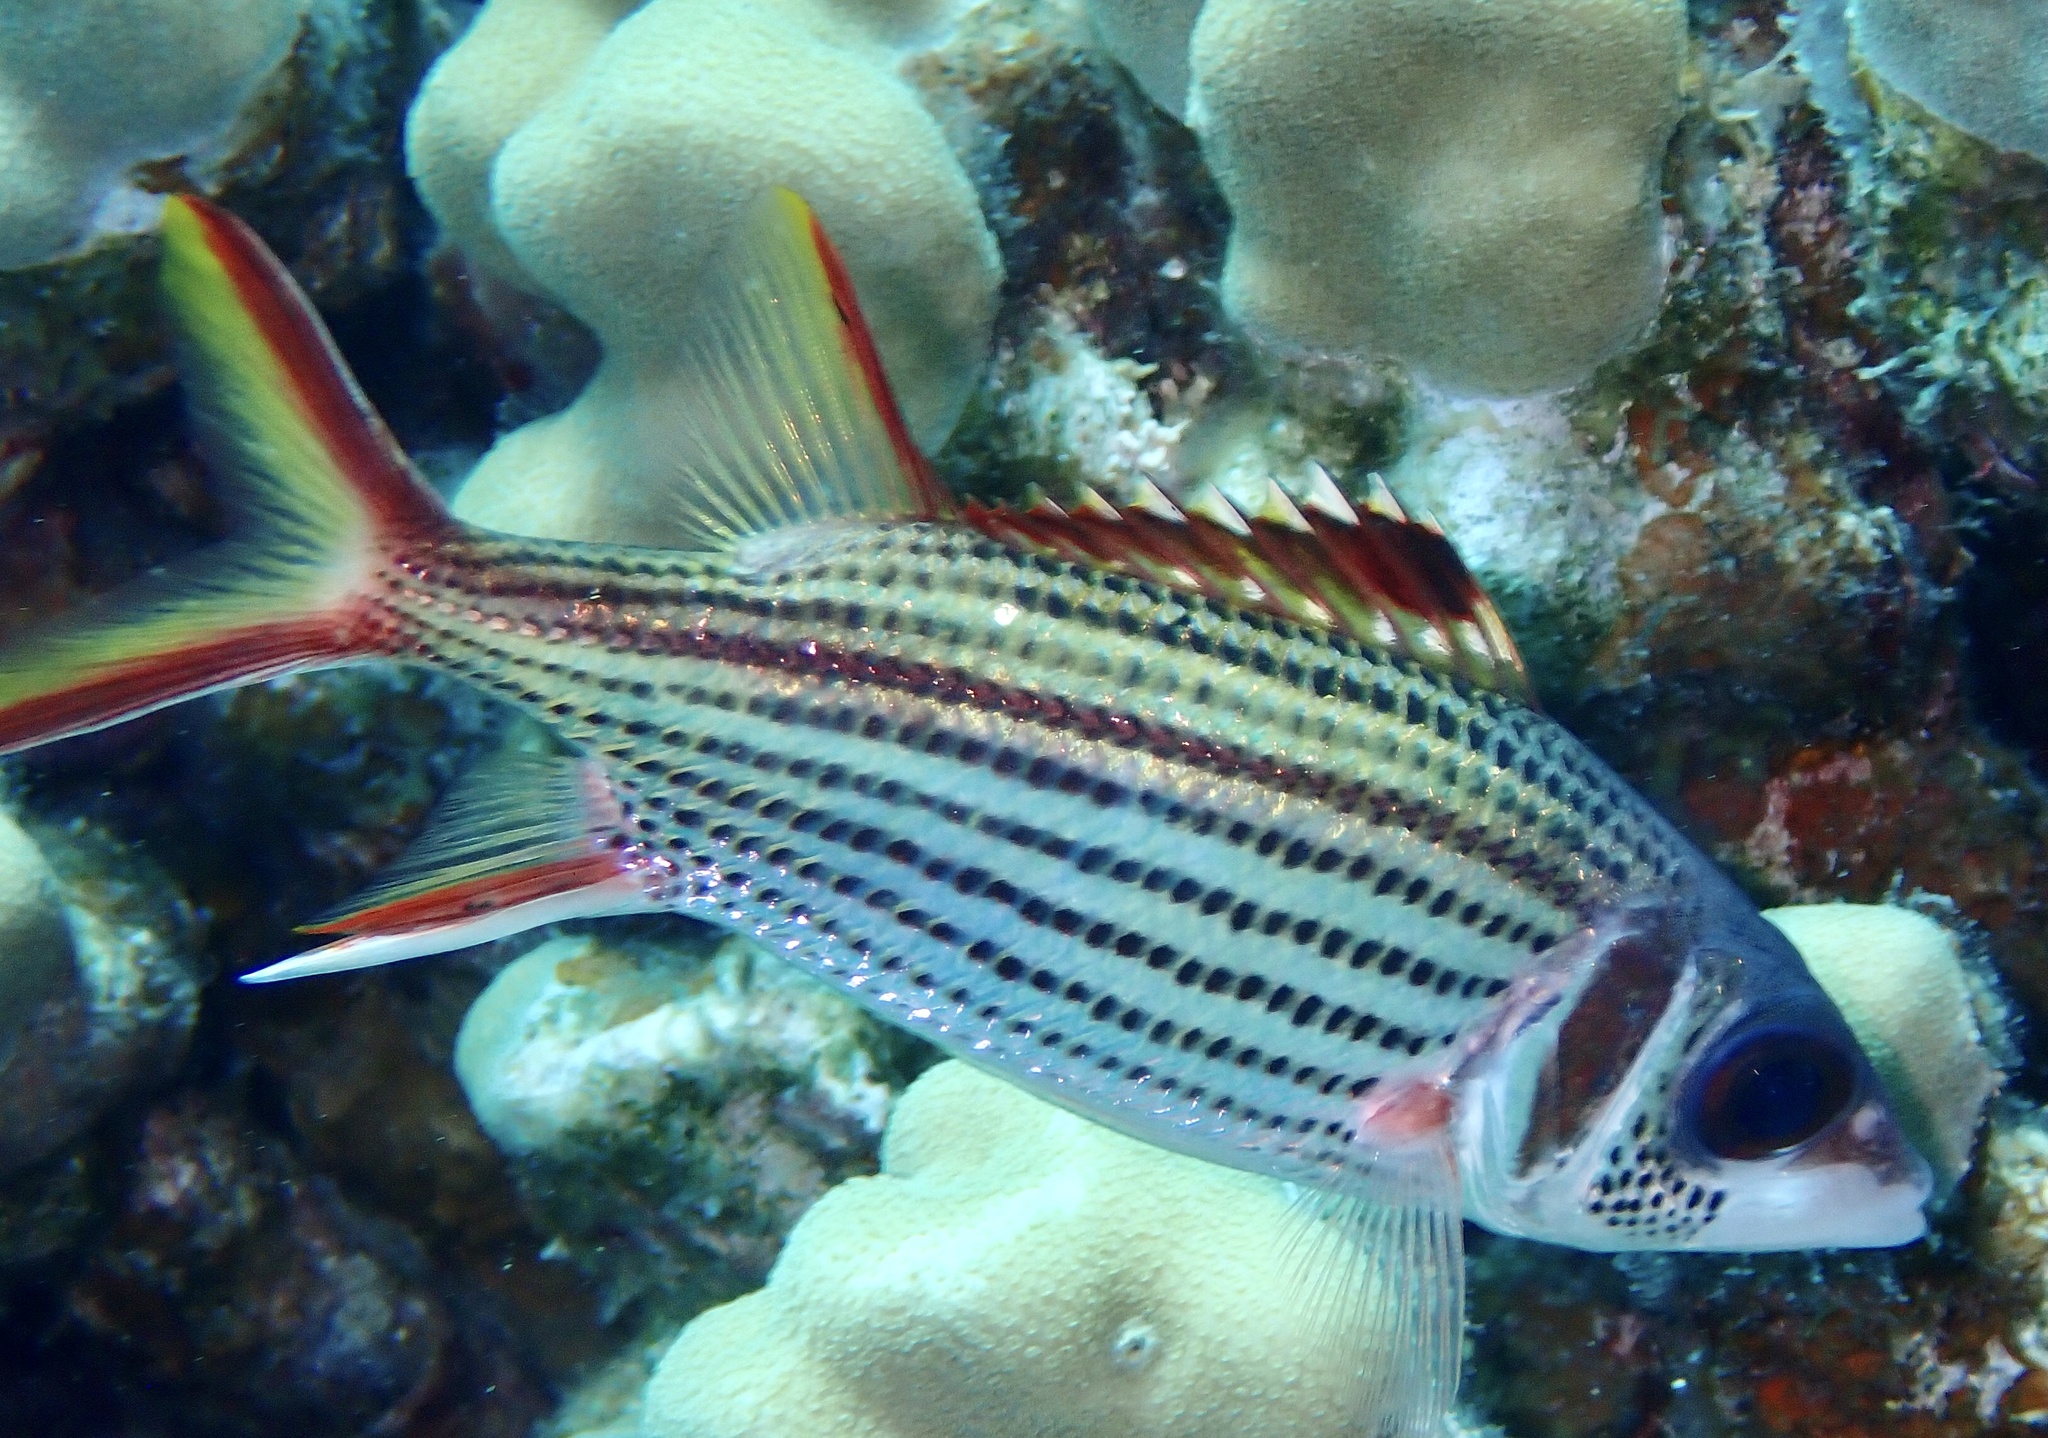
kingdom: Animalia
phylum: Chordata
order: Beryciformes
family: Holocentridae
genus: Neoniphon
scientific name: Neoniphon sammara
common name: Sammara squirrelfish
